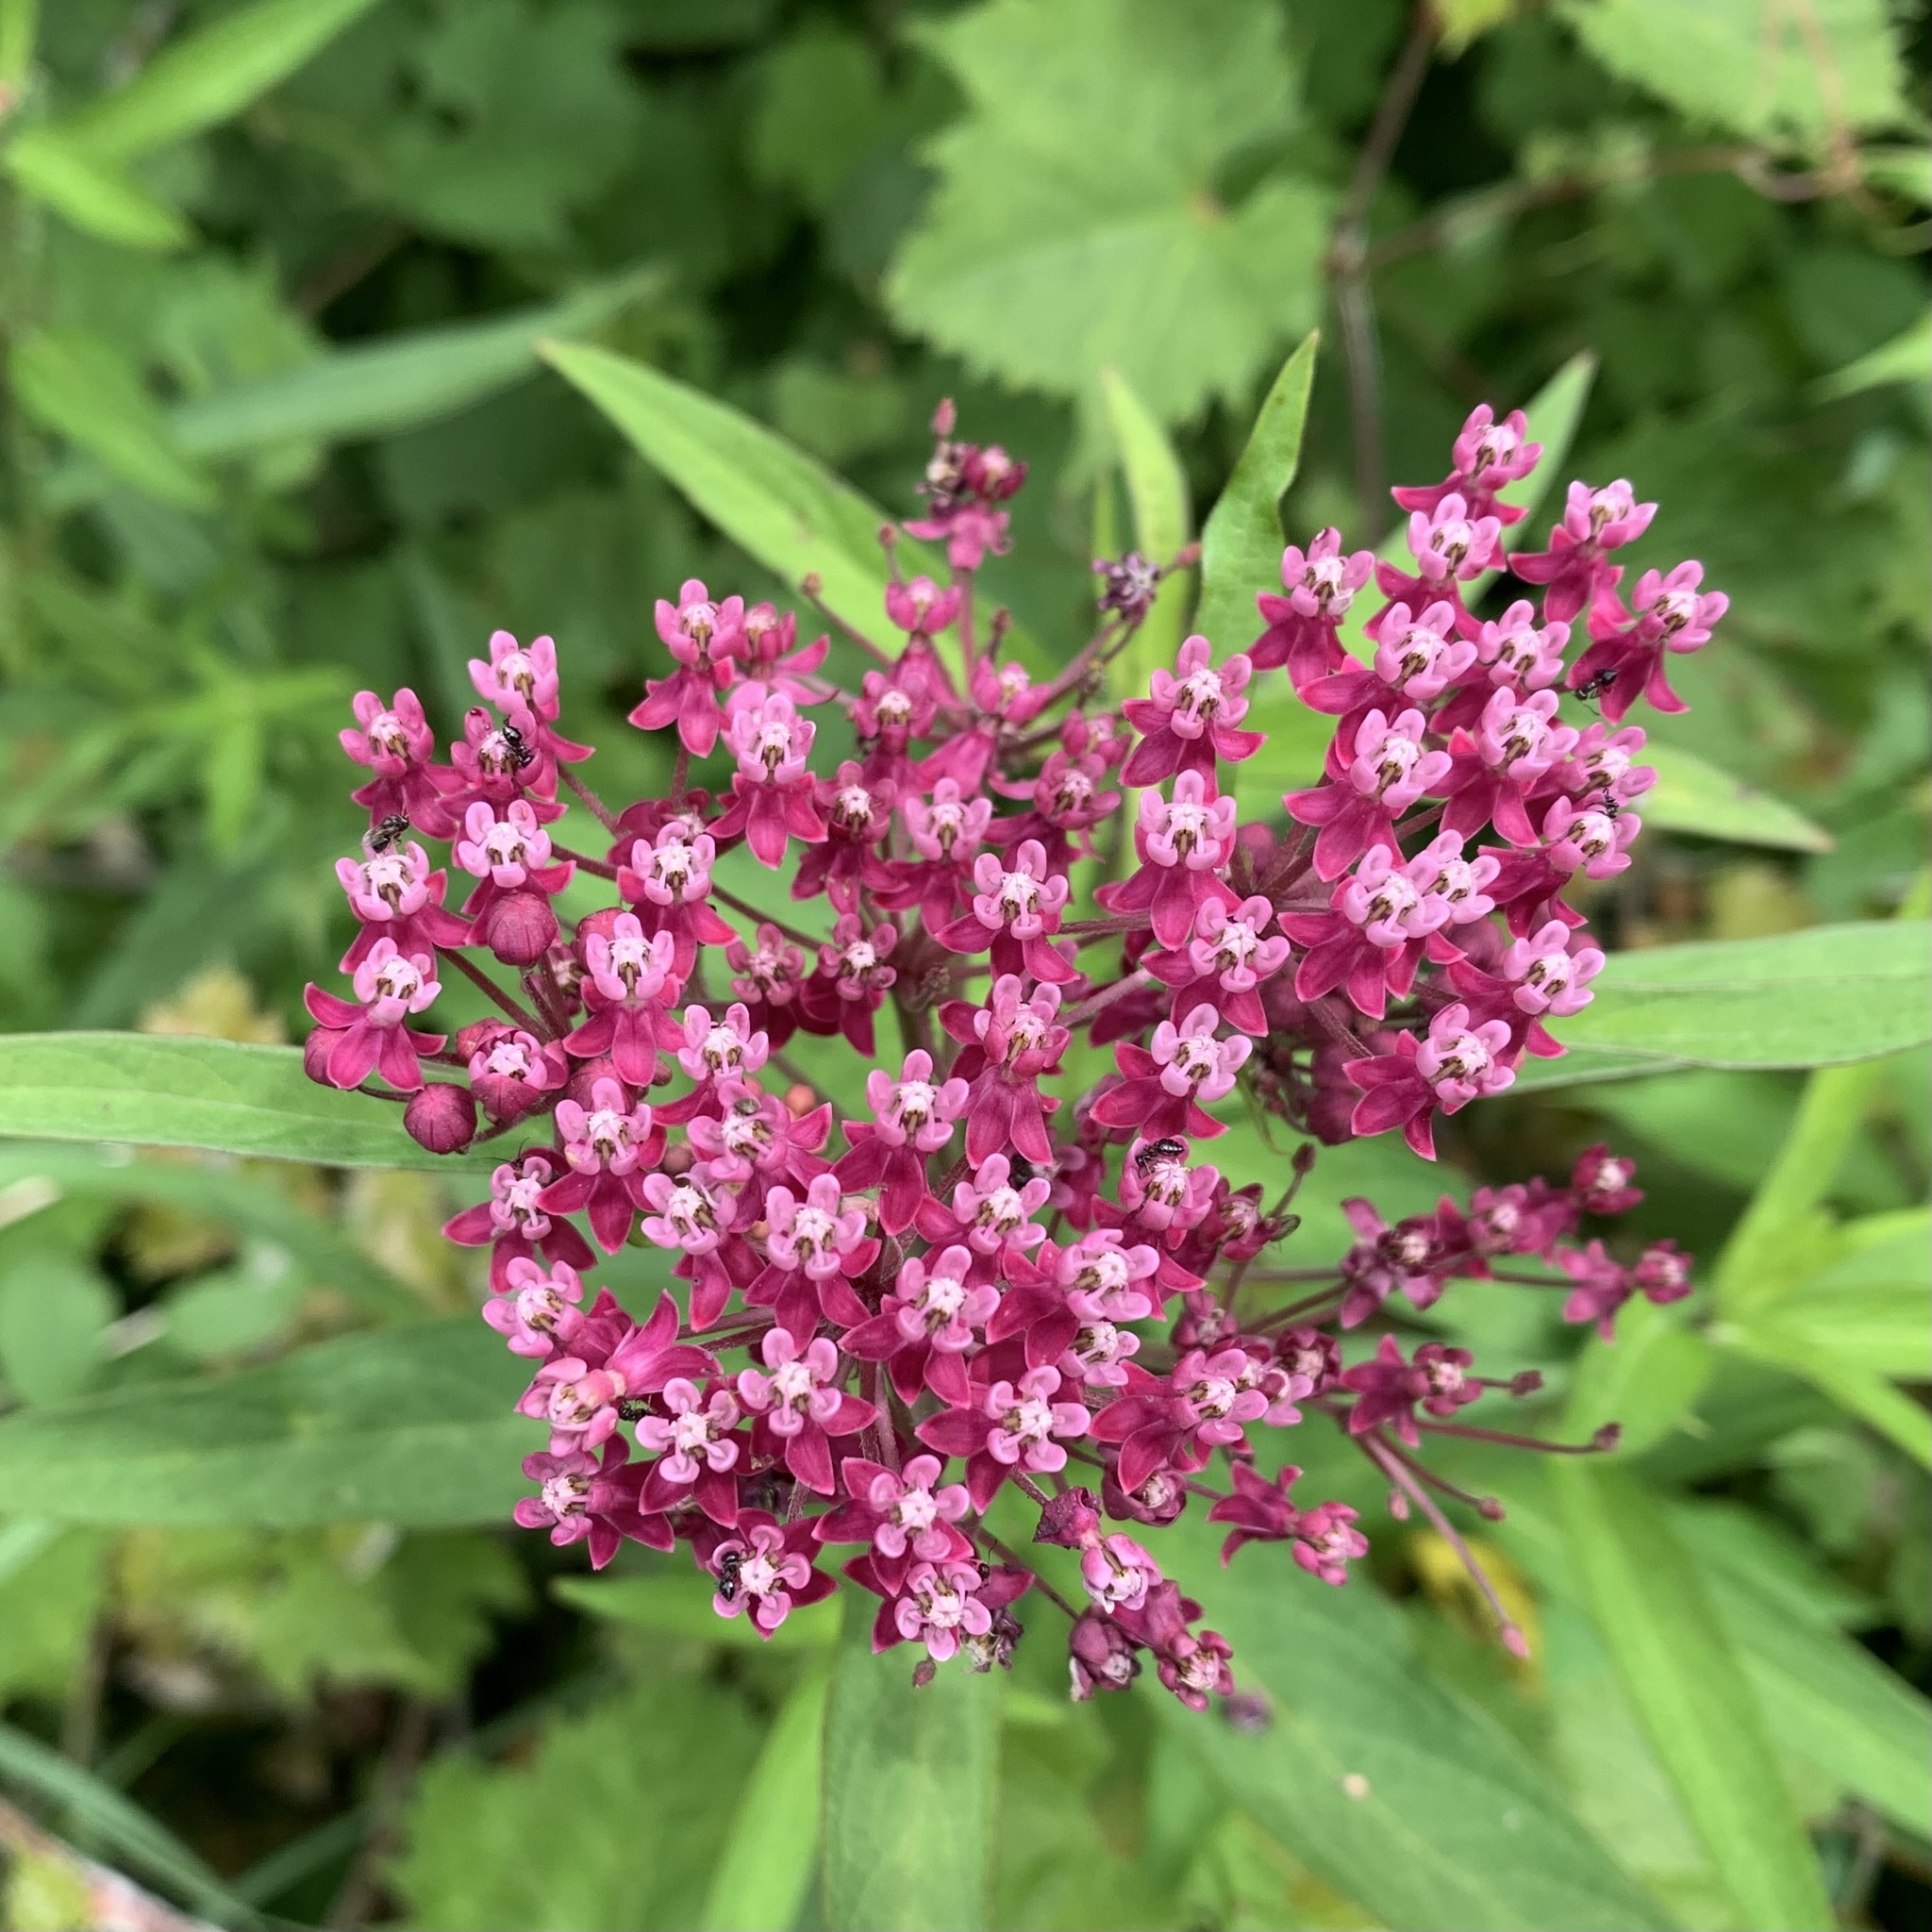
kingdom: Plantae
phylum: Tracheophyta
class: Magnoliopsida
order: Gentianales
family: Apocynaceae
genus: Asclepias
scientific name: Asclepias incarnata
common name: Swamp milkweed
